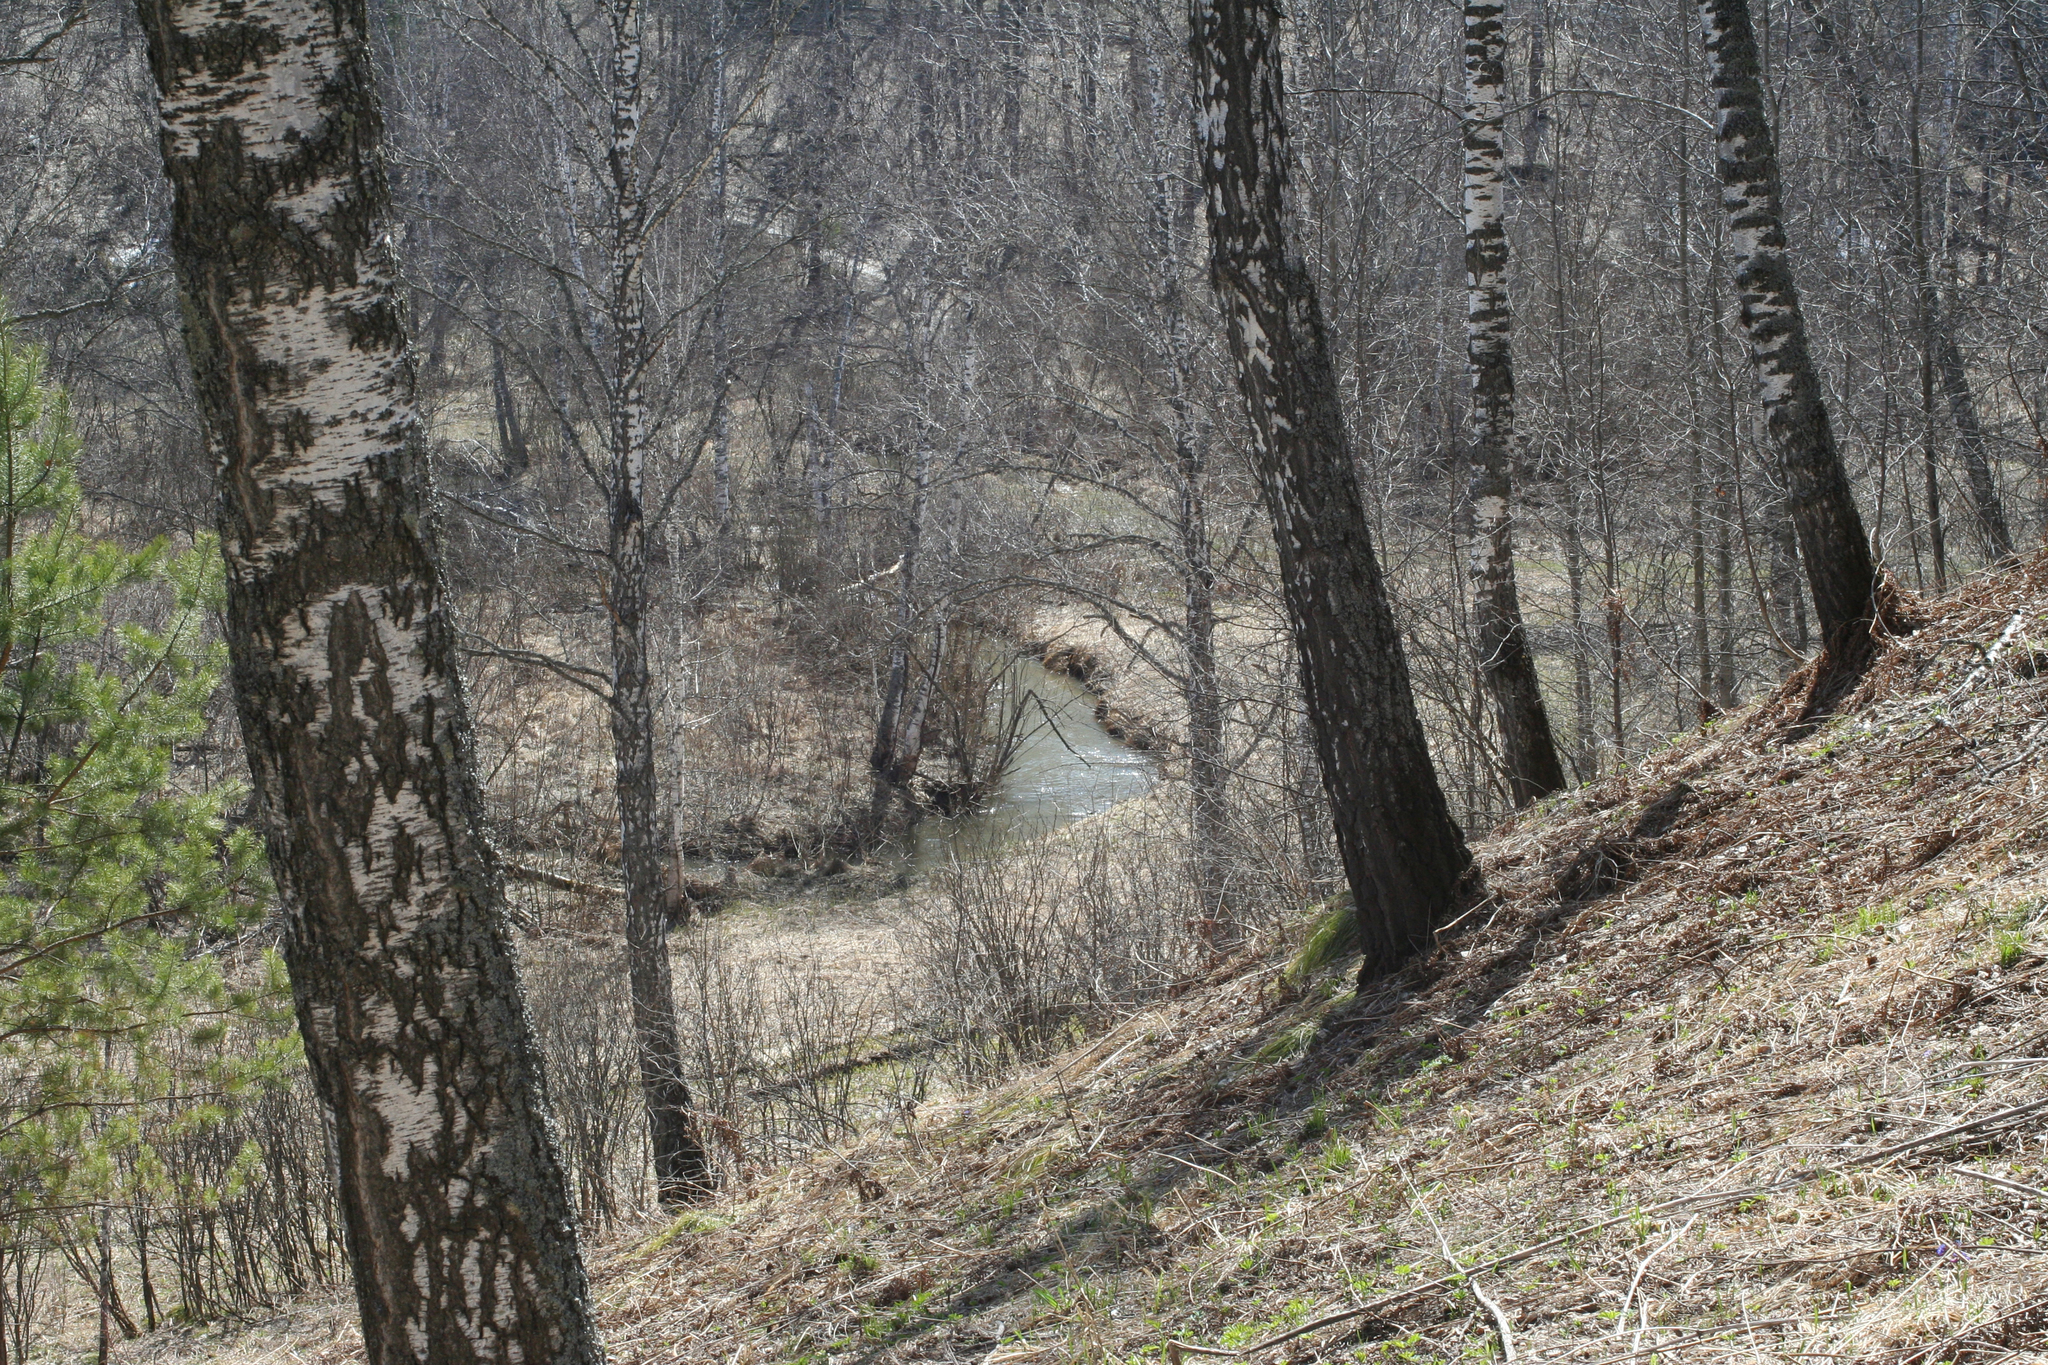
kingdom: Plantae
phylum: Tracheophyta
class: Magnoliopsida
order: Fagales
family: Betulaceae
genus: Betula
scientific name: Betula pendula
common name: Silver birch
